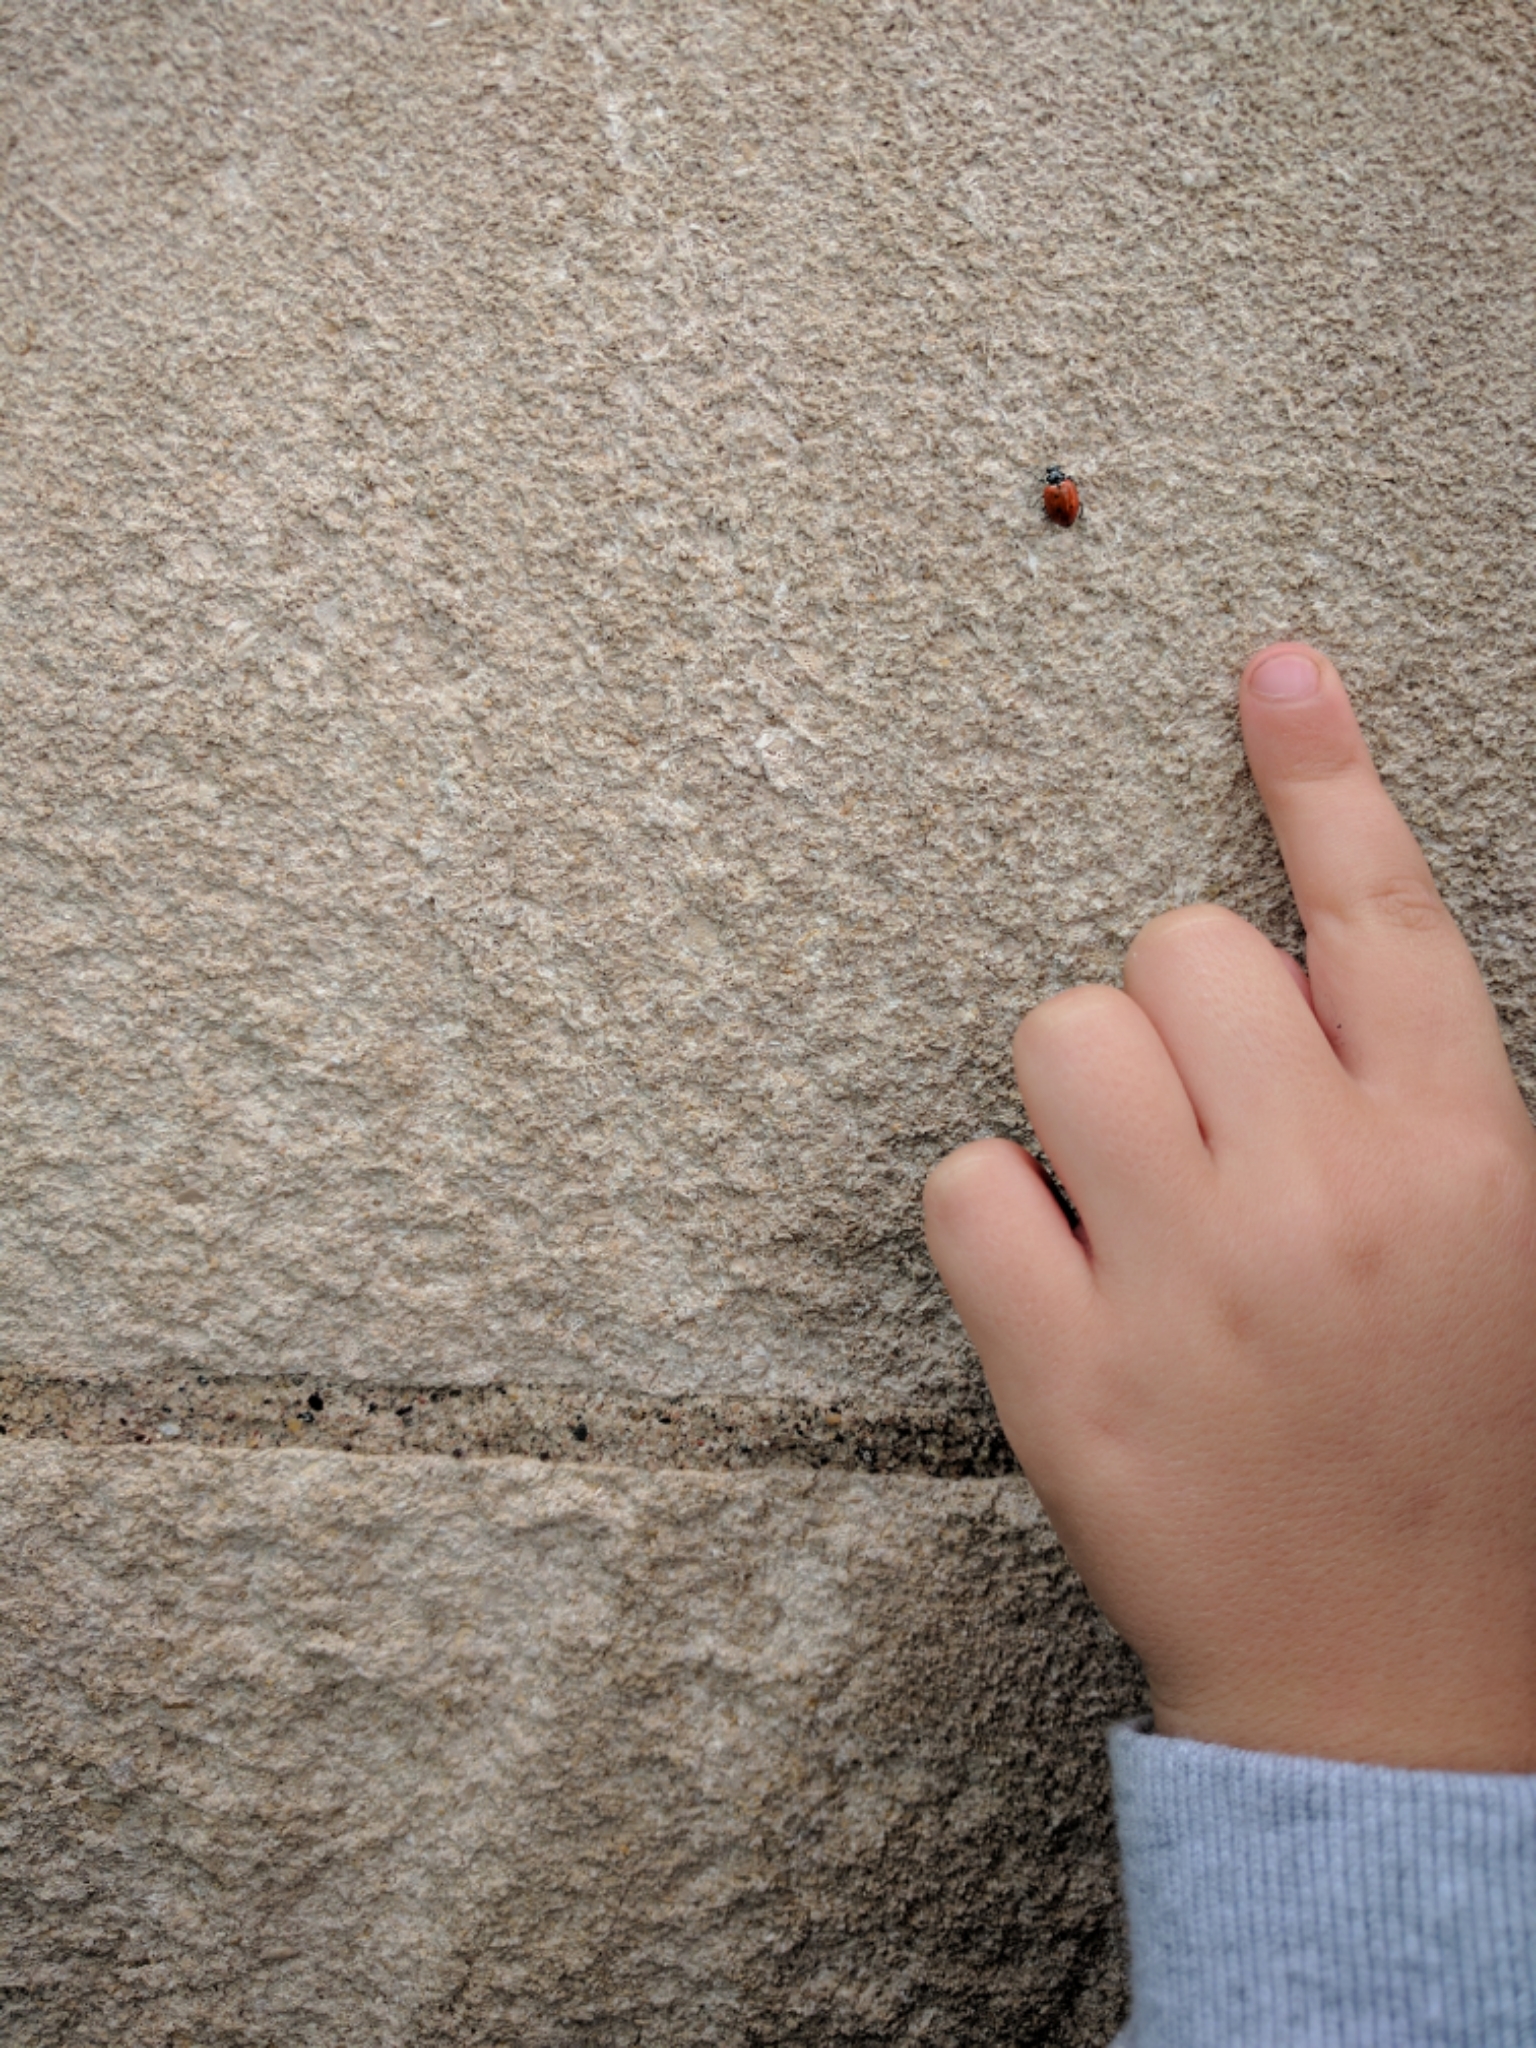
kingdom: Animalia
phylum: Arthropoda
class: Insecta
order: Coleoptera
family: Coccinellidae
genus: Hippodamia
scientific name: Hippodamia convergens
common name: Convergent lady beetle
